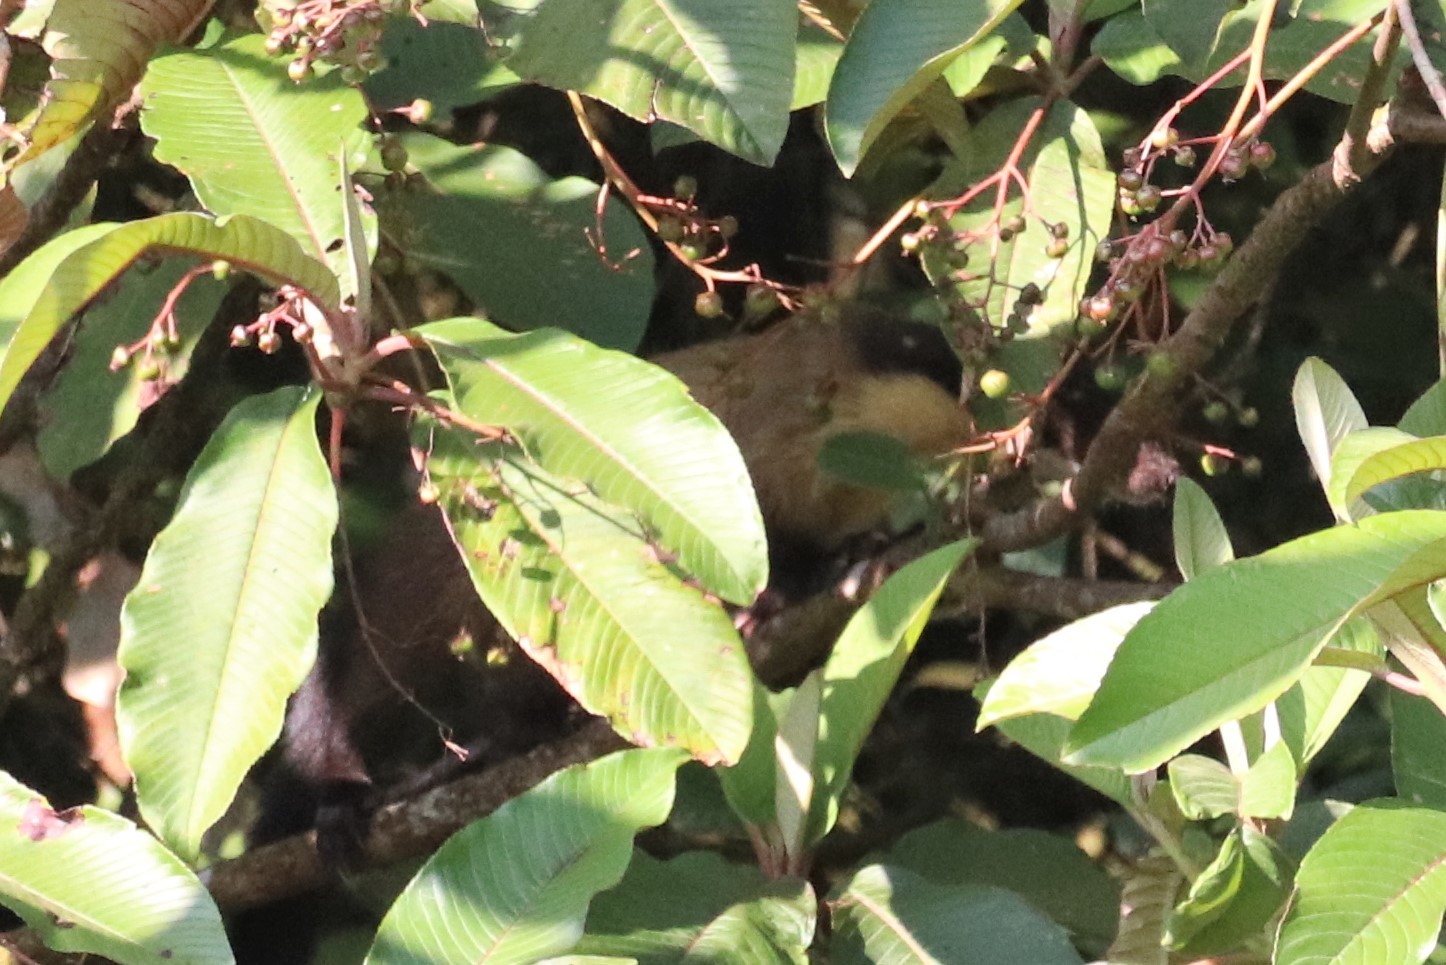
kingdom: Animalia
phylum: Chordata
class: Mammalia
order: Carnivora
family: Mustelidae
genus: Martes
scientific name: Martes flavigula
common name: Yellow-throated marten
